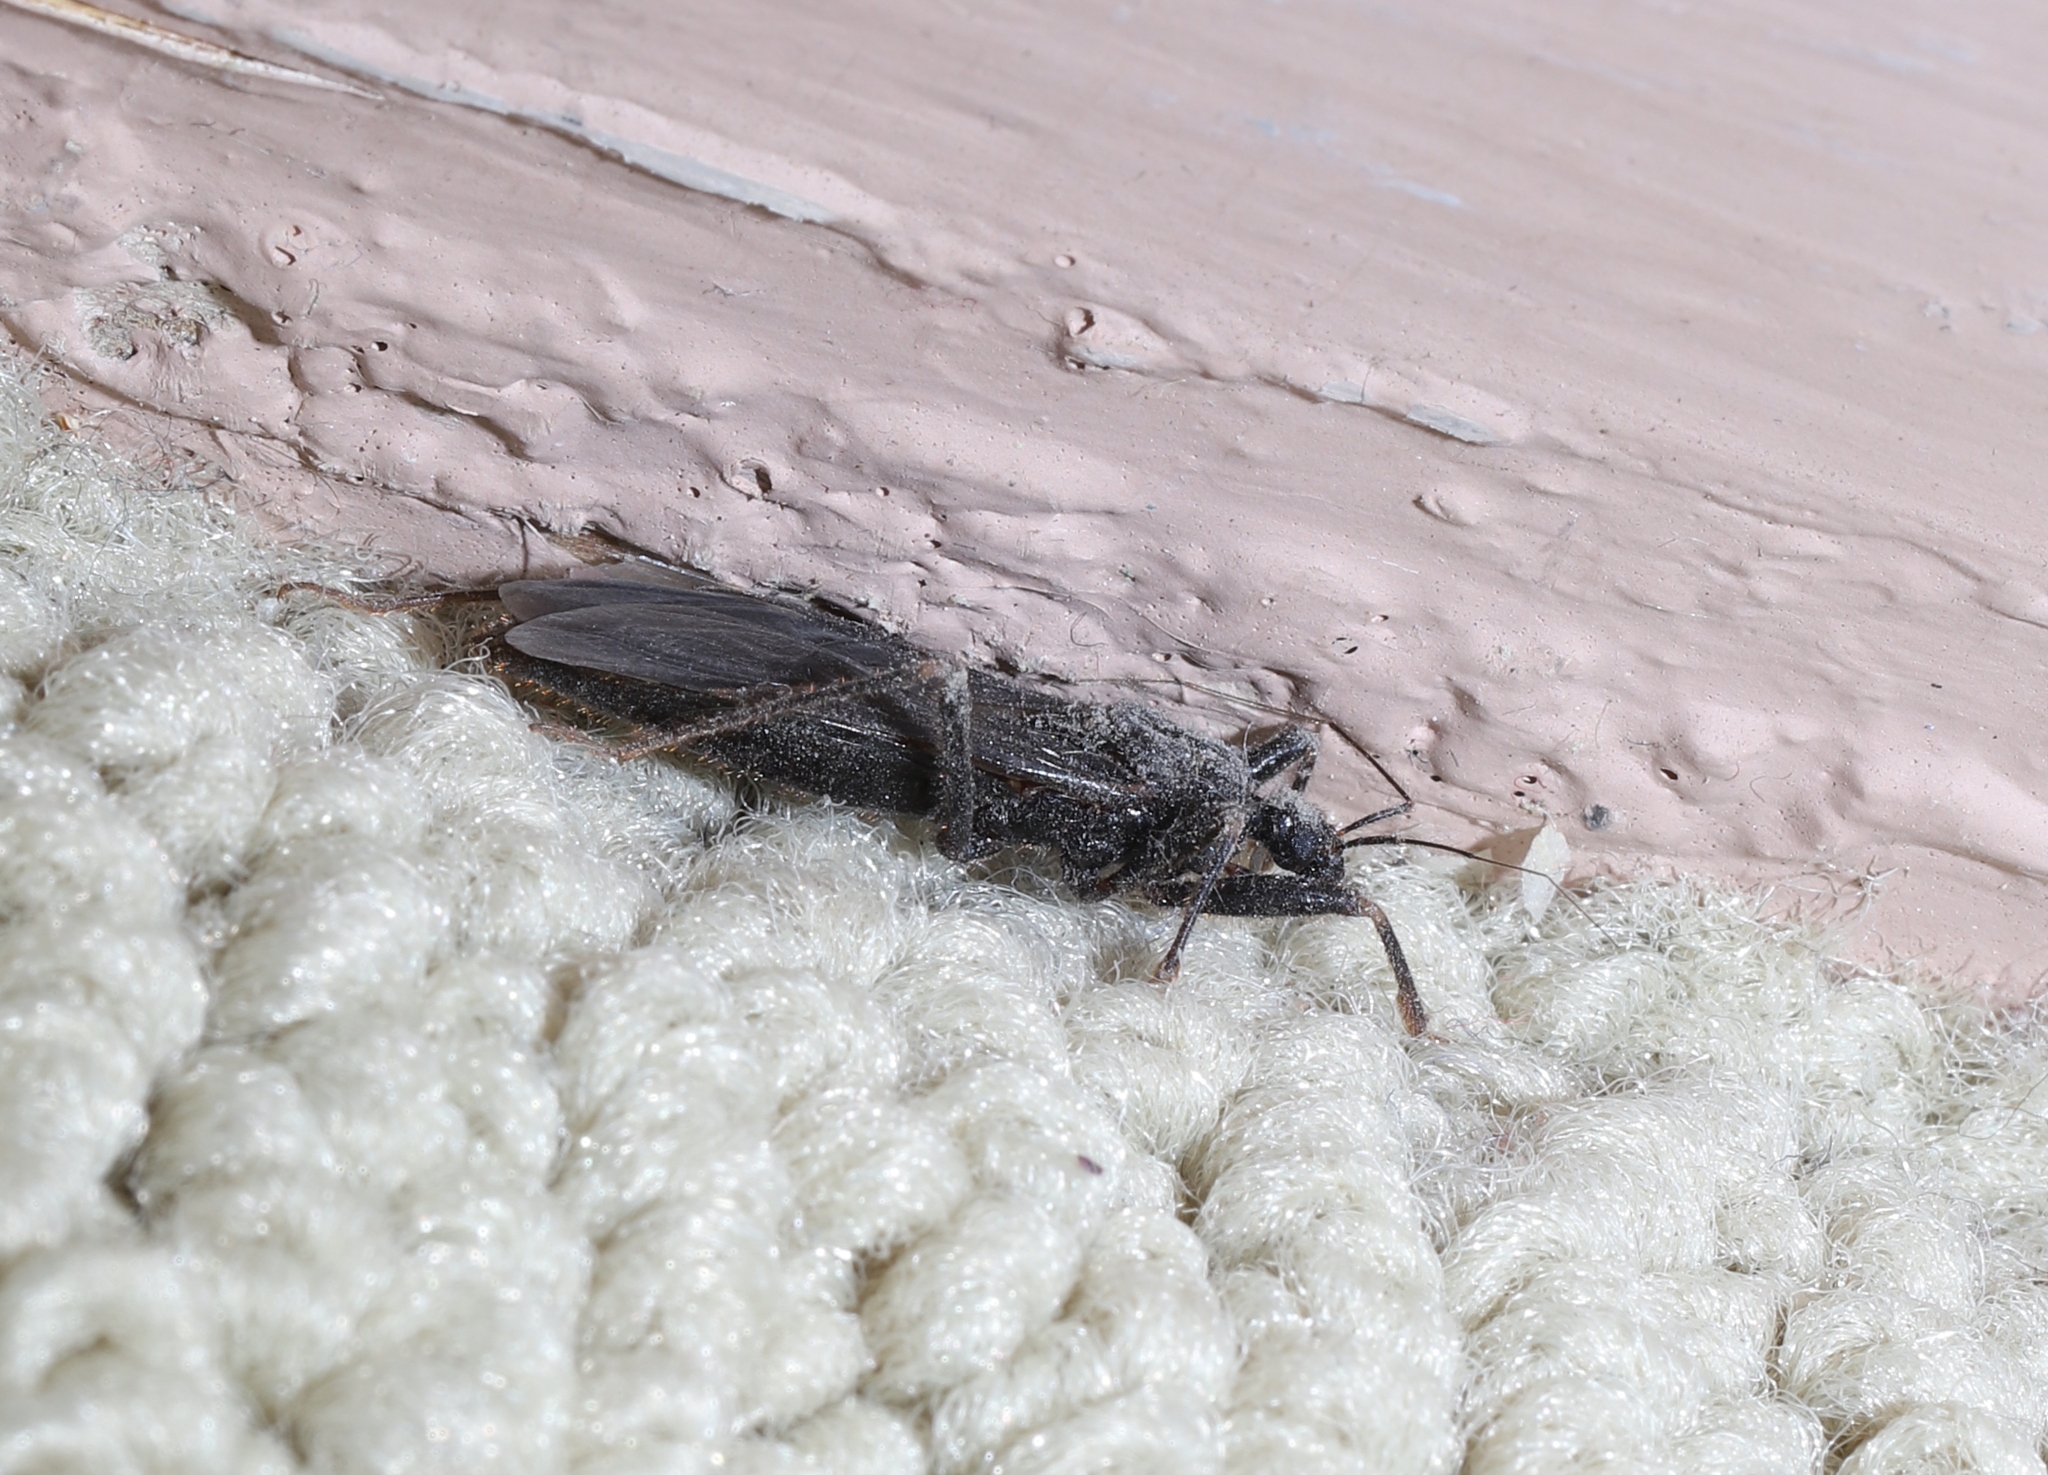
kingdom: Animalia
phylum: Arthropoda
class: Insecta
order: Hemiptera
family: Reduviidae
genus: Reduvius
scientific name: Reduvius personatus
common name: Masked hunter
